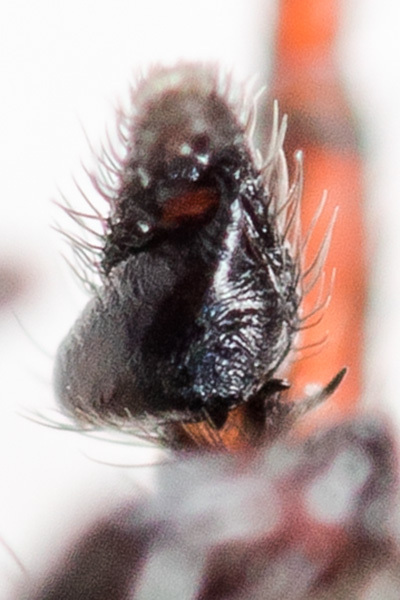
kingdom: Animalia
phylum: Arthropoda
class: Arachnida
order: Araneae
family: Salticidae
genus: Heliophanus
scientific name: Heliophanus wesolowskae
